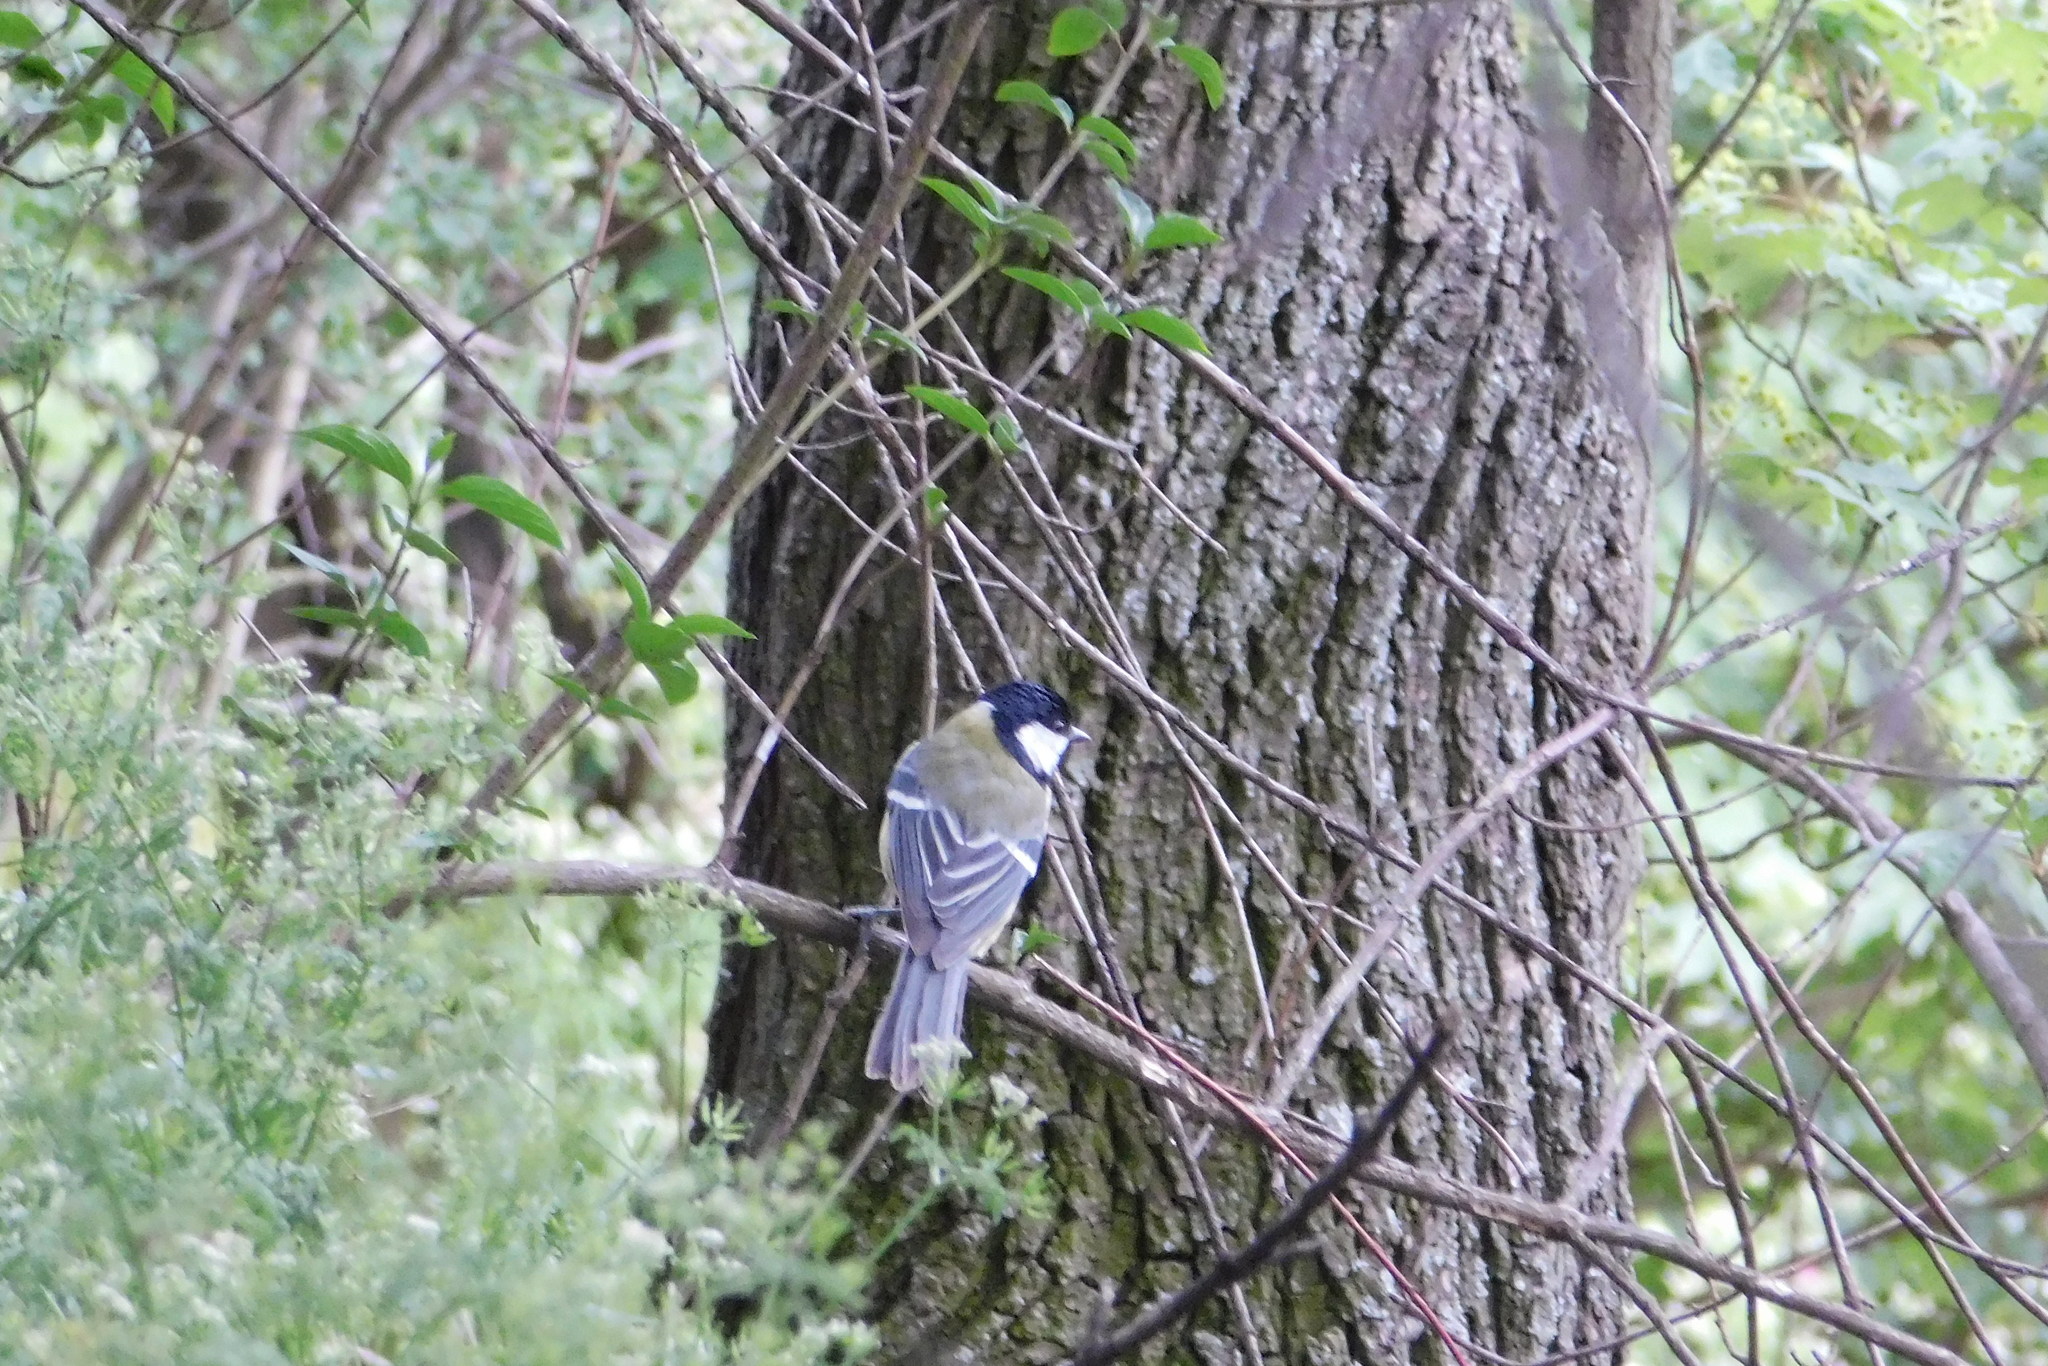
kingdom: Animalia
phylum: Chordata
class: Aves
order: Passeriformes
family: Paridae
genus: Parus
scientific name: Parus major
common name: Great tit
